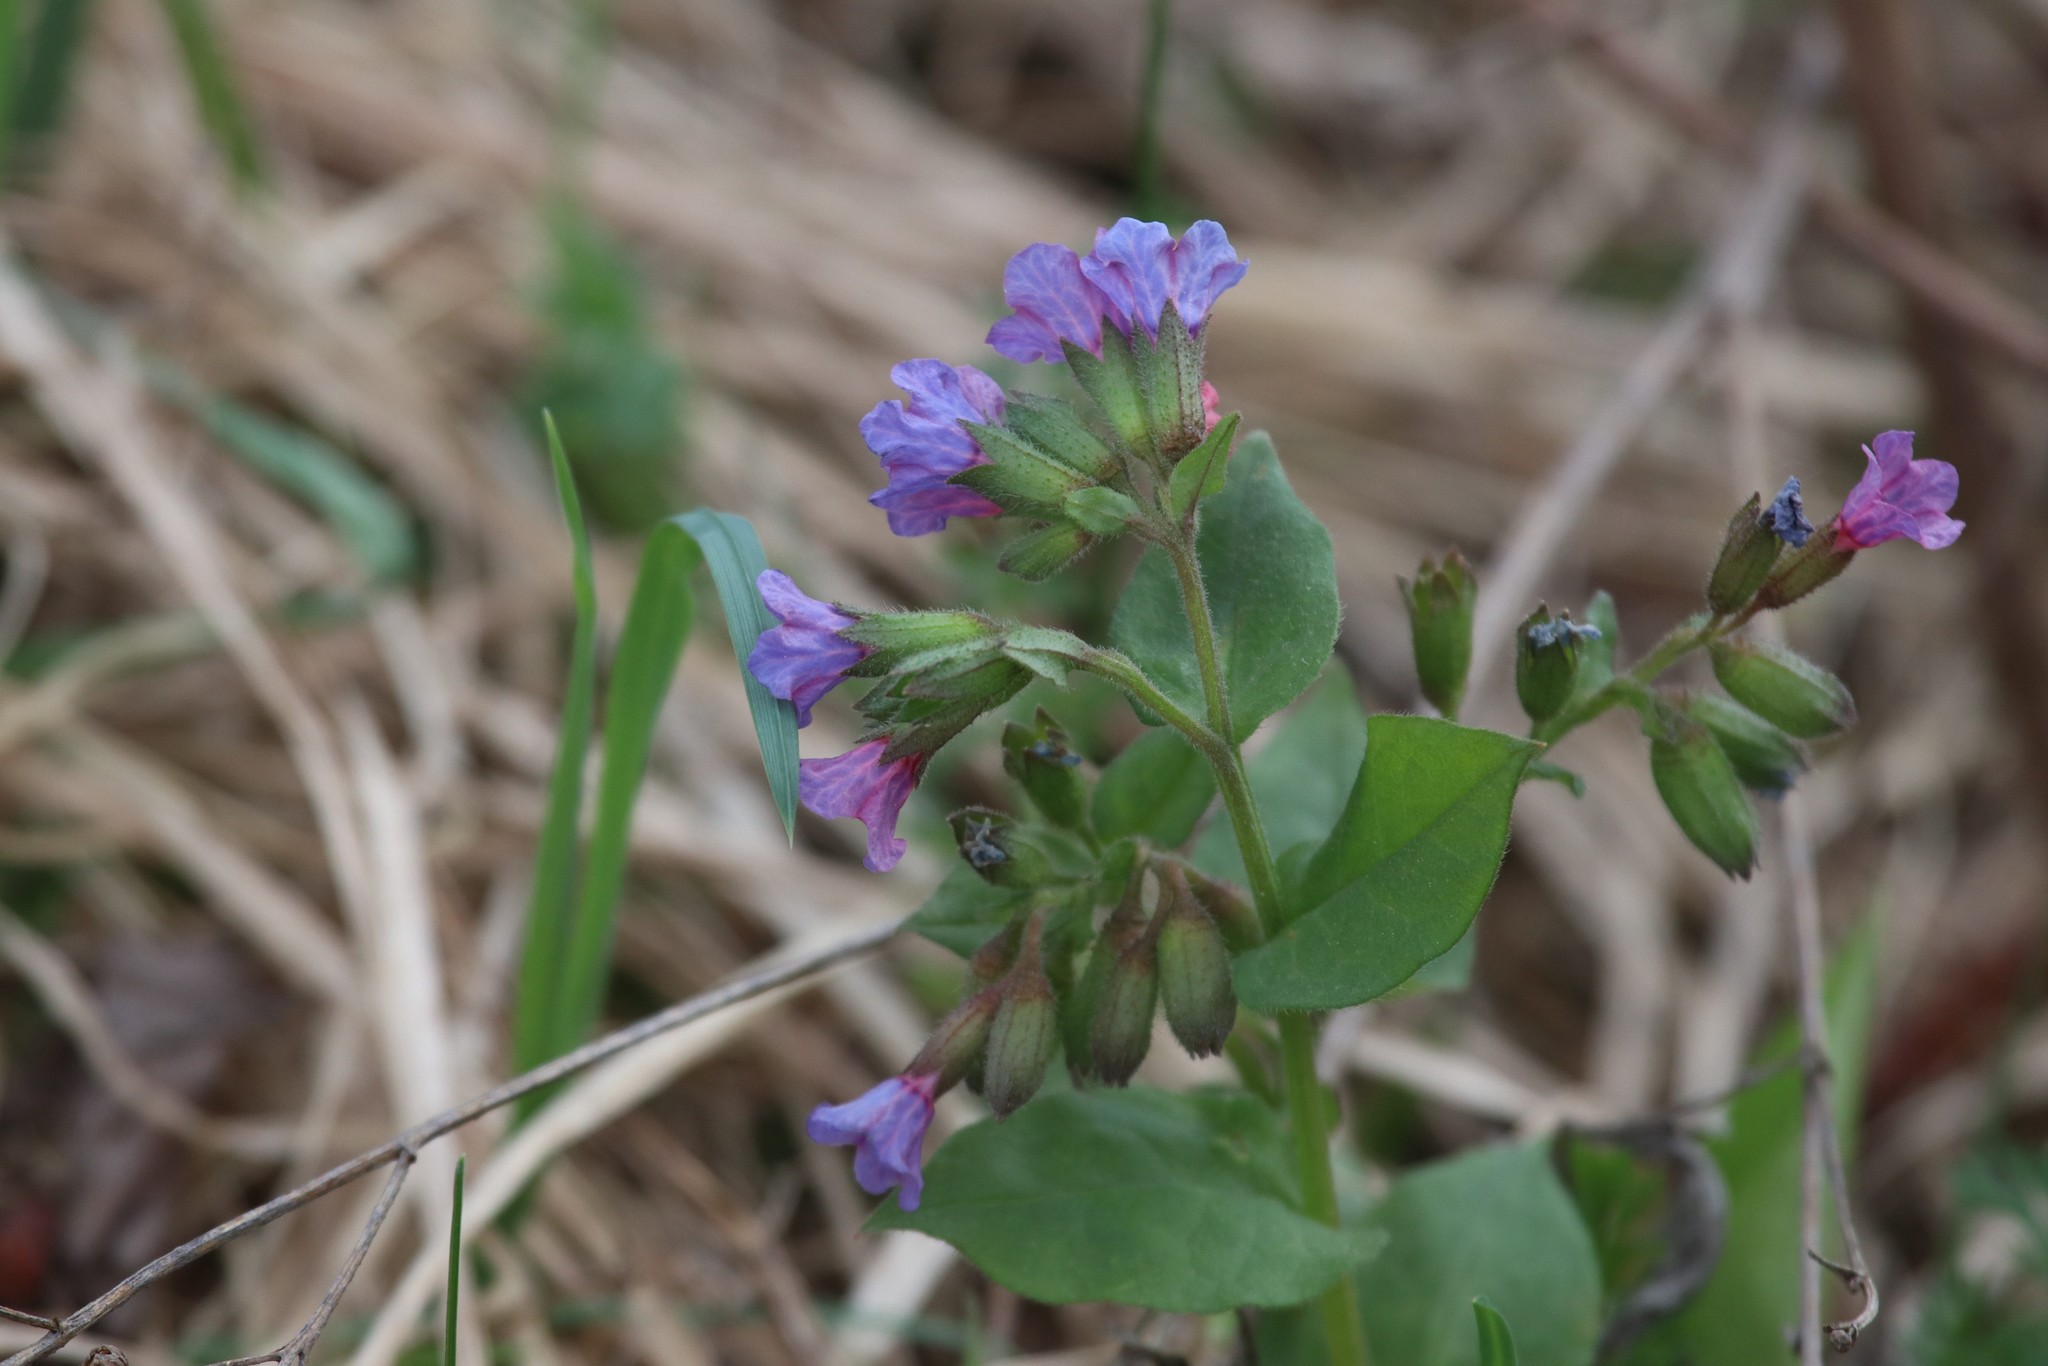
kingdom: Plantae
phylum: Tracheophyta
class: Magnoliopsida
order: Boraginales
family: Boraginaceae
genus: Pulmonaria
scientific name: Pulmonaria obscura
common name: Suffolk lungwort
